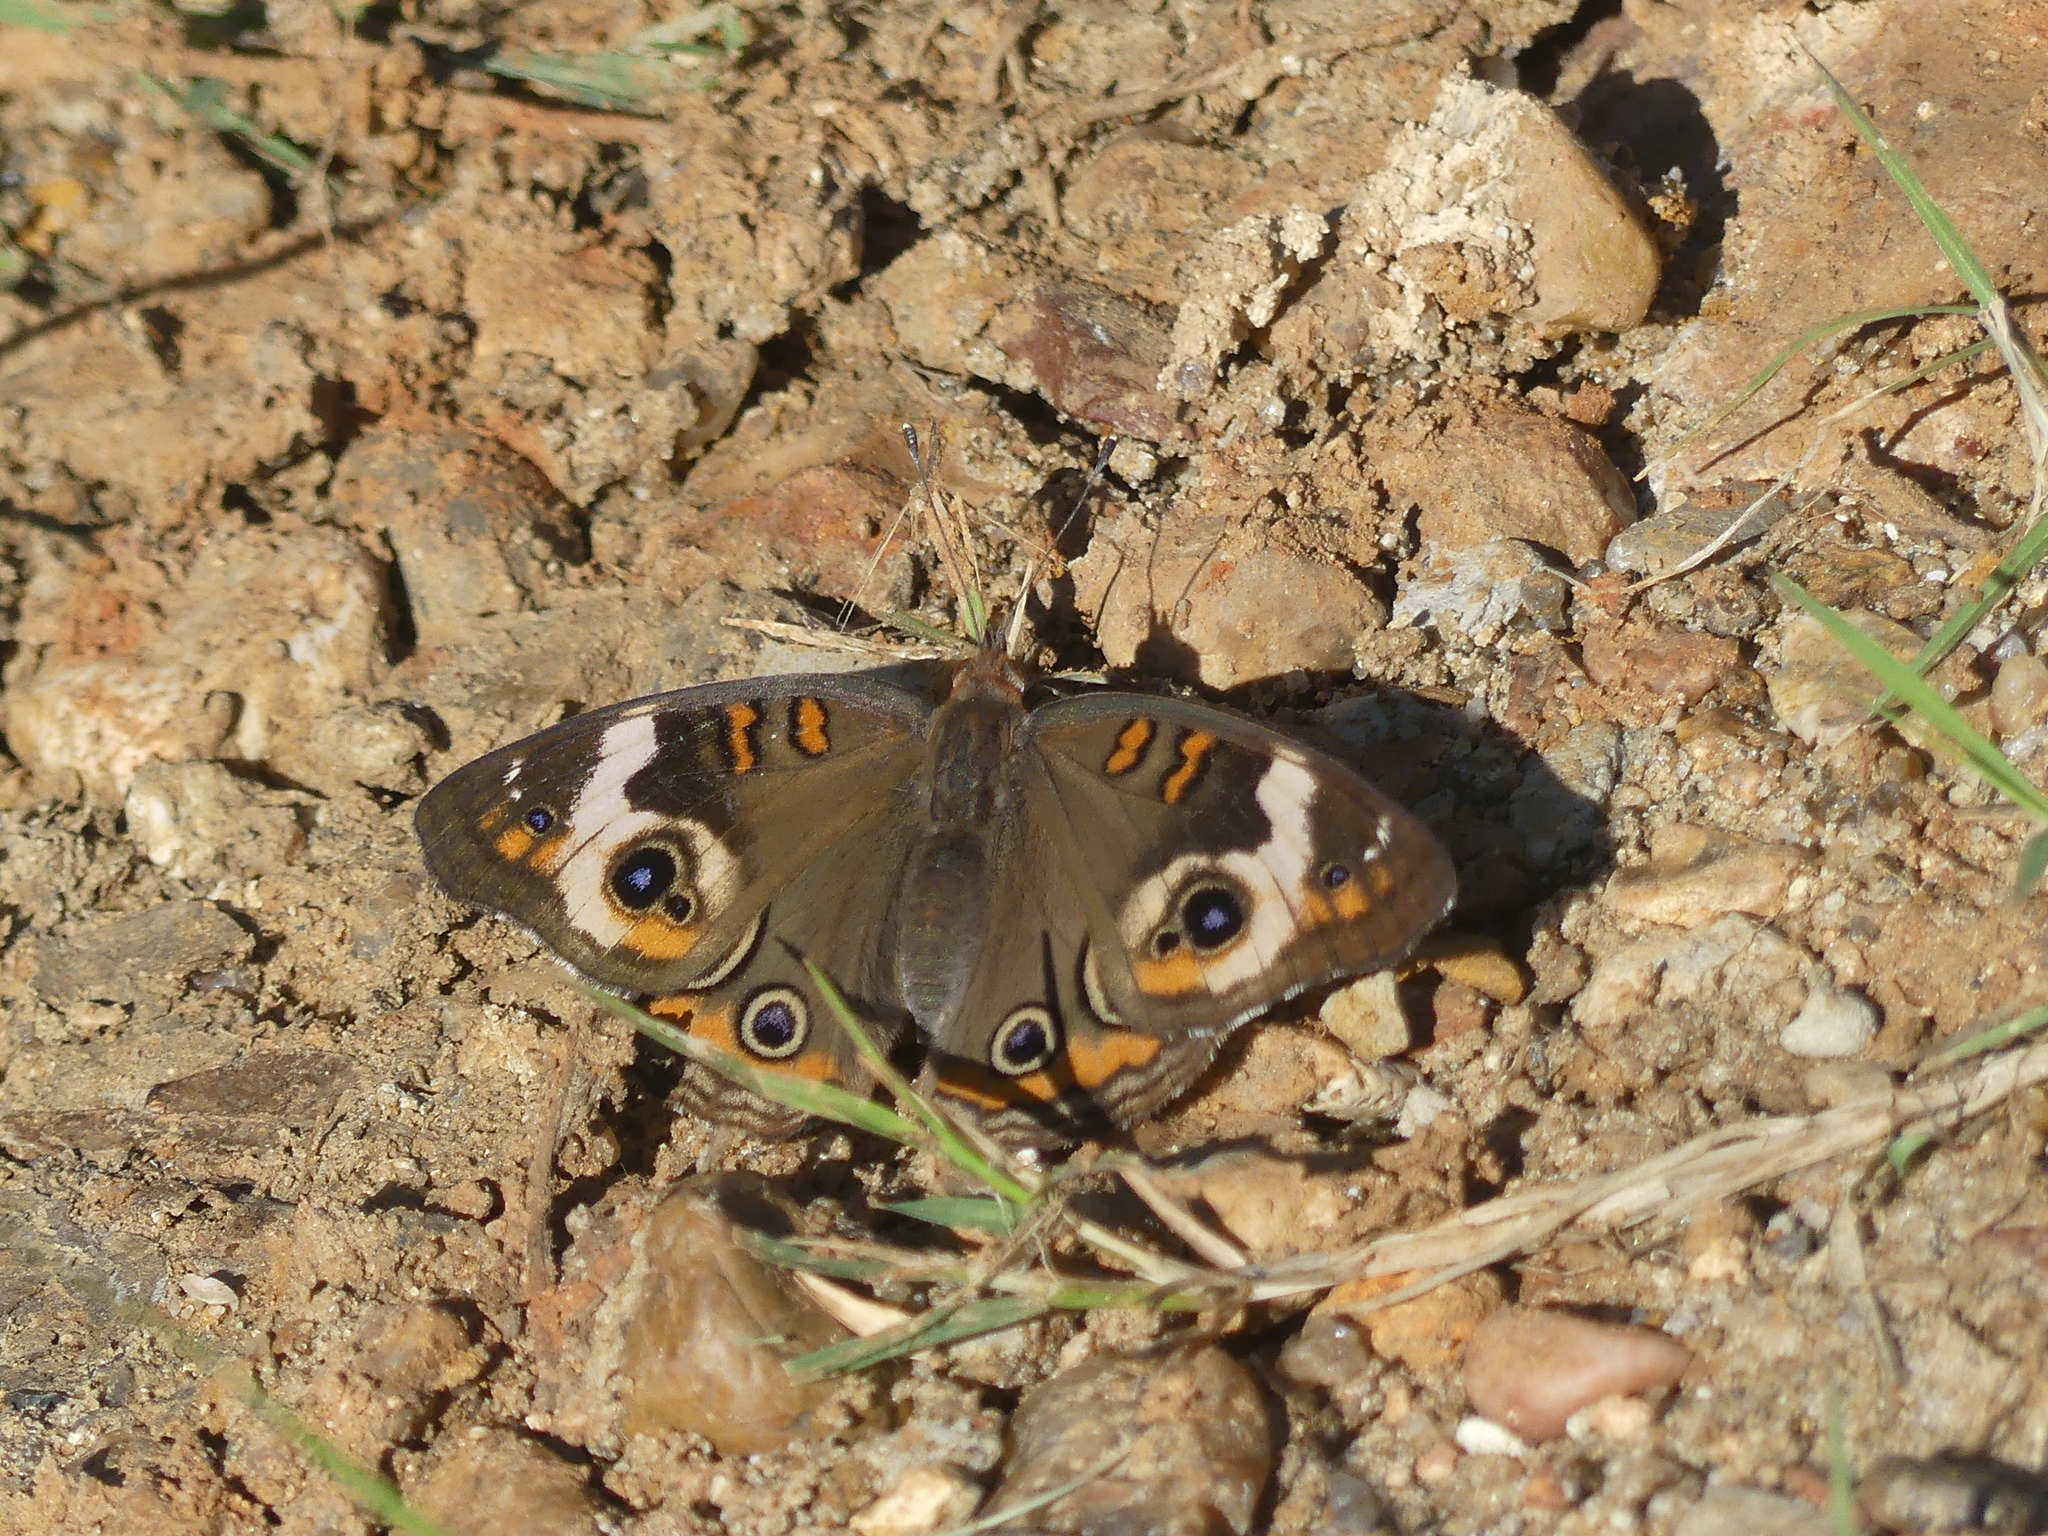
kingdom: Animalia
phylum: Arthropoda
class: Insecta
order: Lepidoptera
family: Nymphalidae
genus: Junonia
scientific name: Junonia coenia
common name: Common buckeye
